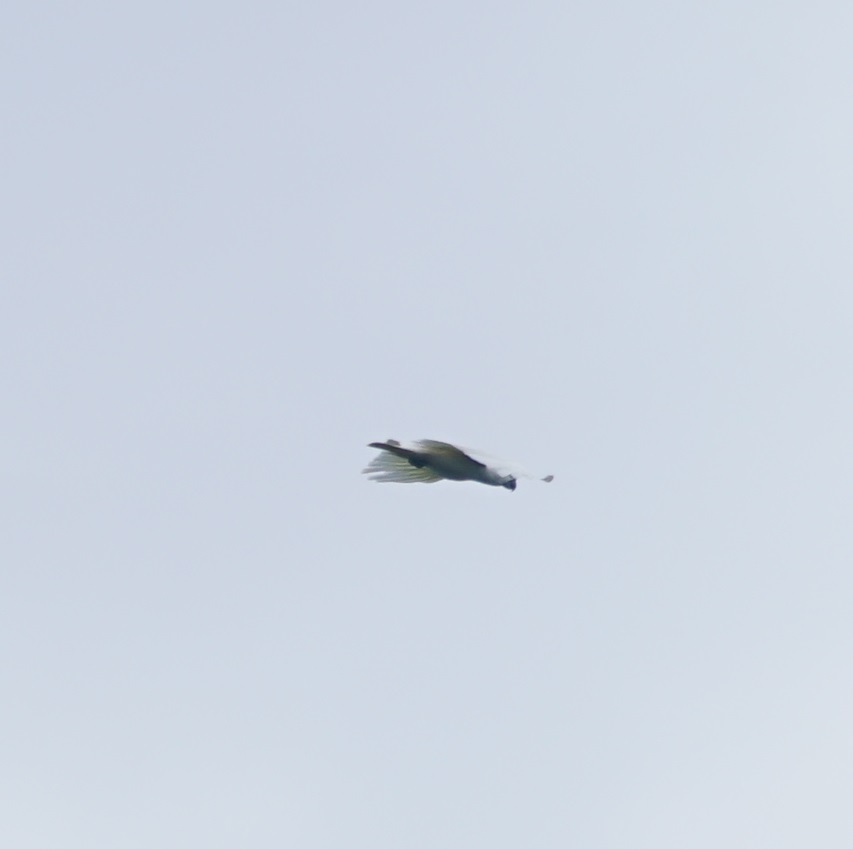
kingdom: Animalia
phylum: Chordata
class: Aves
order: Psittaciformes
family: Psittacidae
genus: Cacatua
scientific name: Cacatua galerita
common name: Sulphur-crested cockatoo
